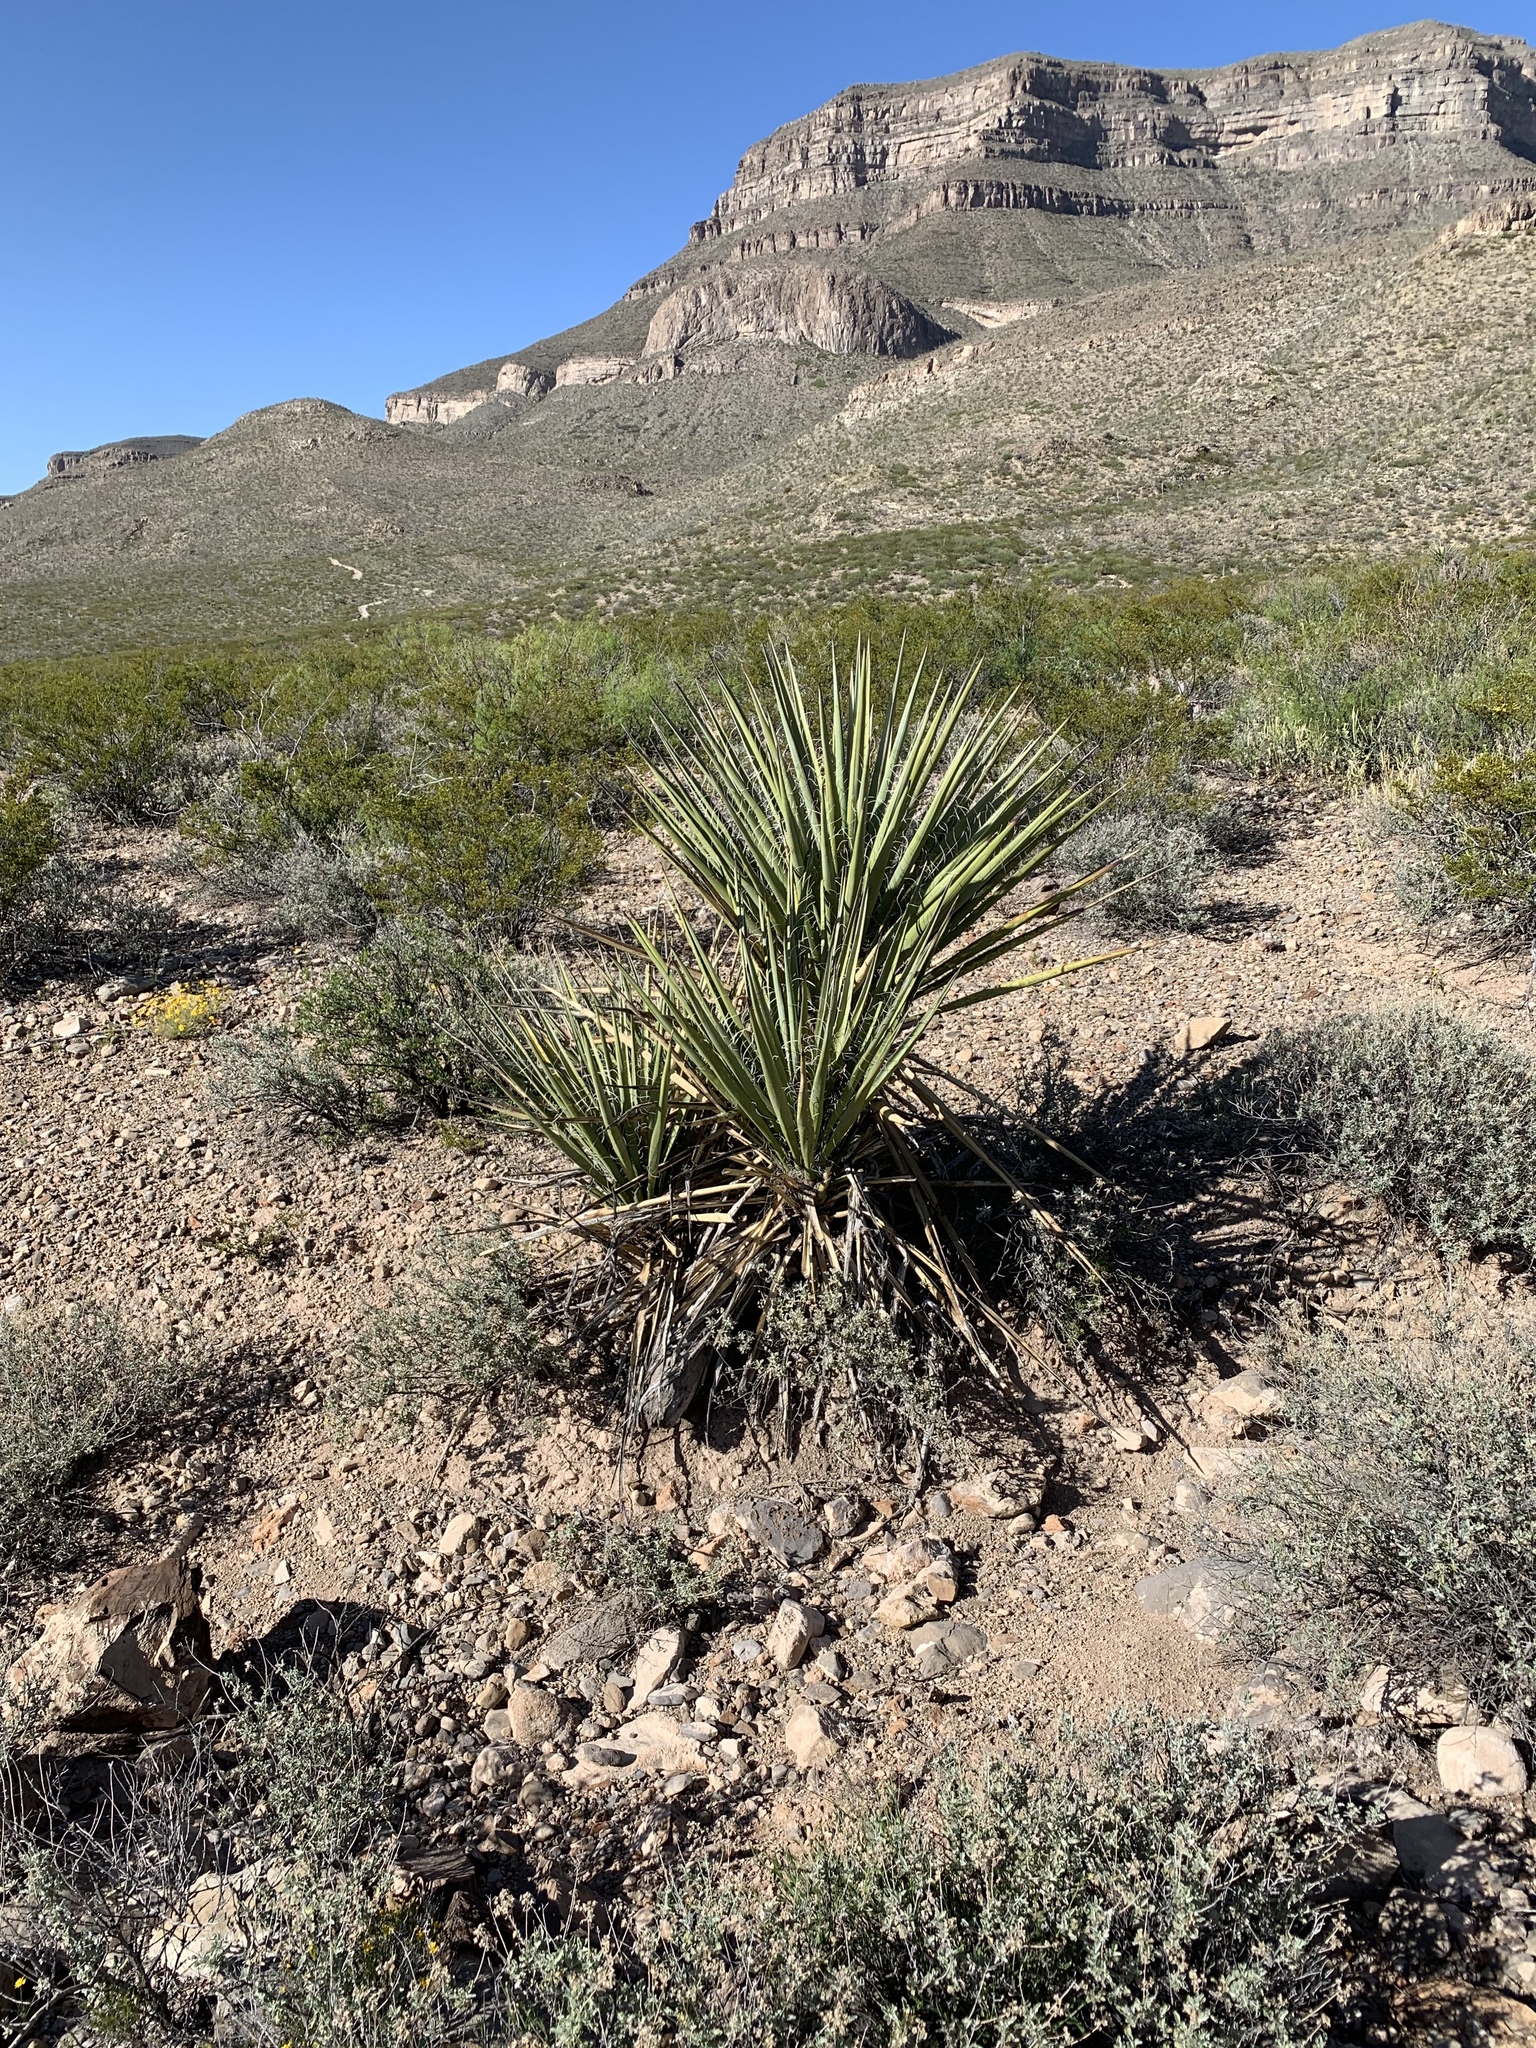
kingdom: Plantae
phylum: Tracheophyta
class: Liliopsida
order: Asparagales
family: Asparagaceae
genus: Yucca
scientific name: Yucca treculiana
